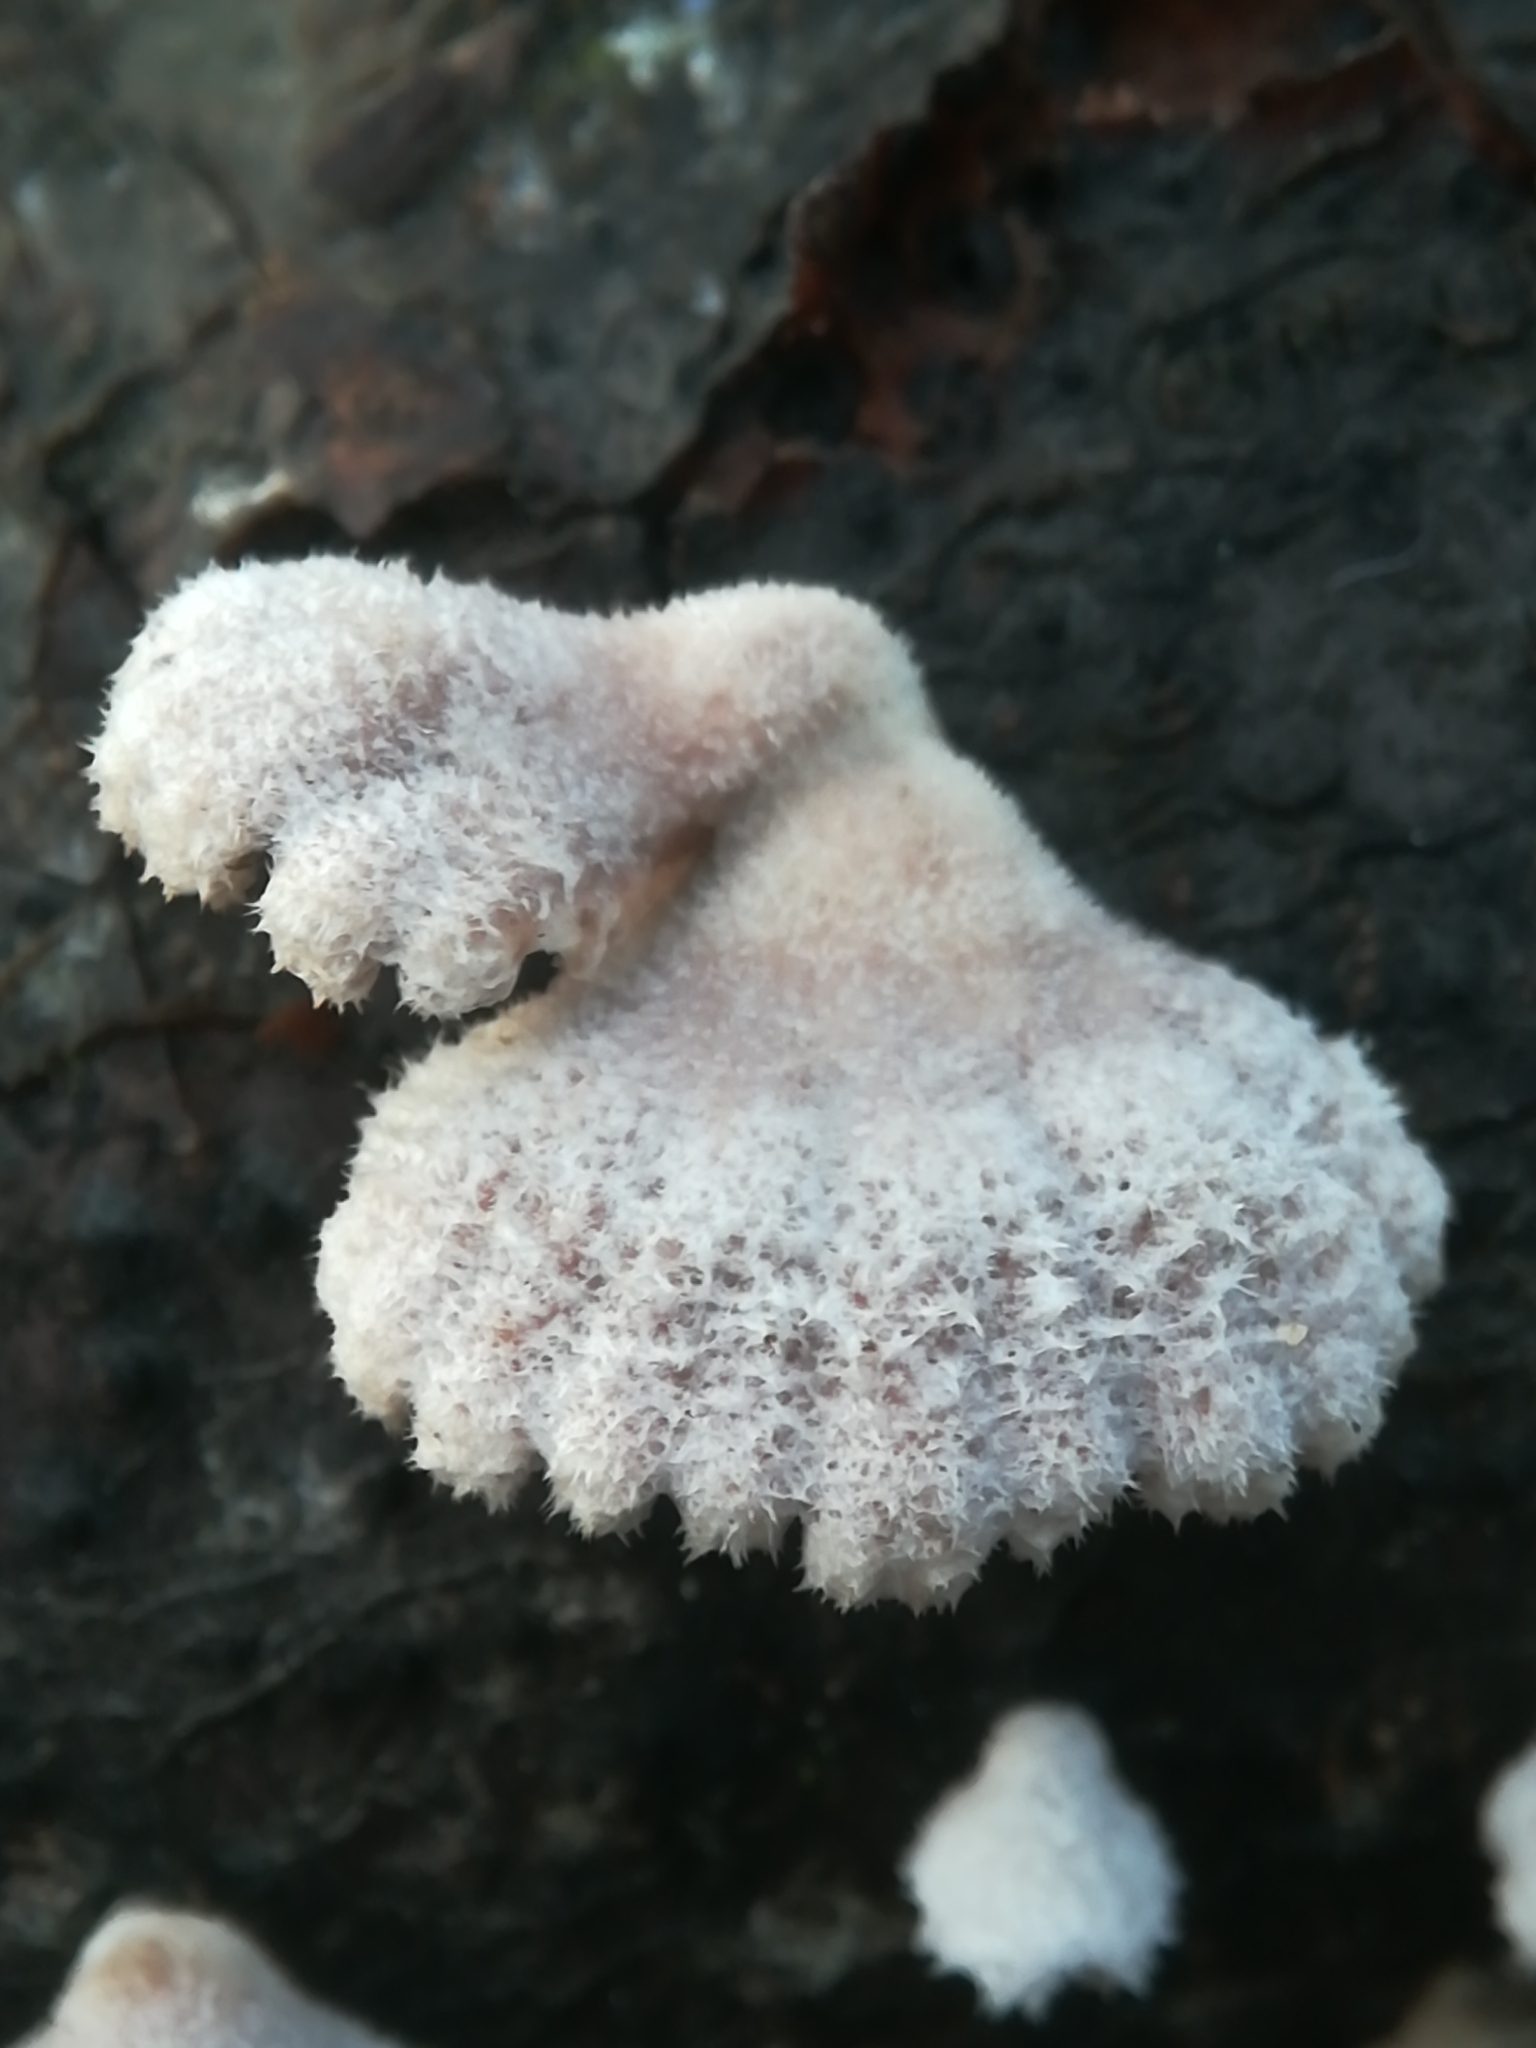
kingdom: Fungi
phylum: Basidiomycota
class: Agaricomycetes
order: Agaricales
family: Schizophyllaceae
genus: Schizophyllum
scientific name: Schizophyllum commune
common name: Common porecrust
